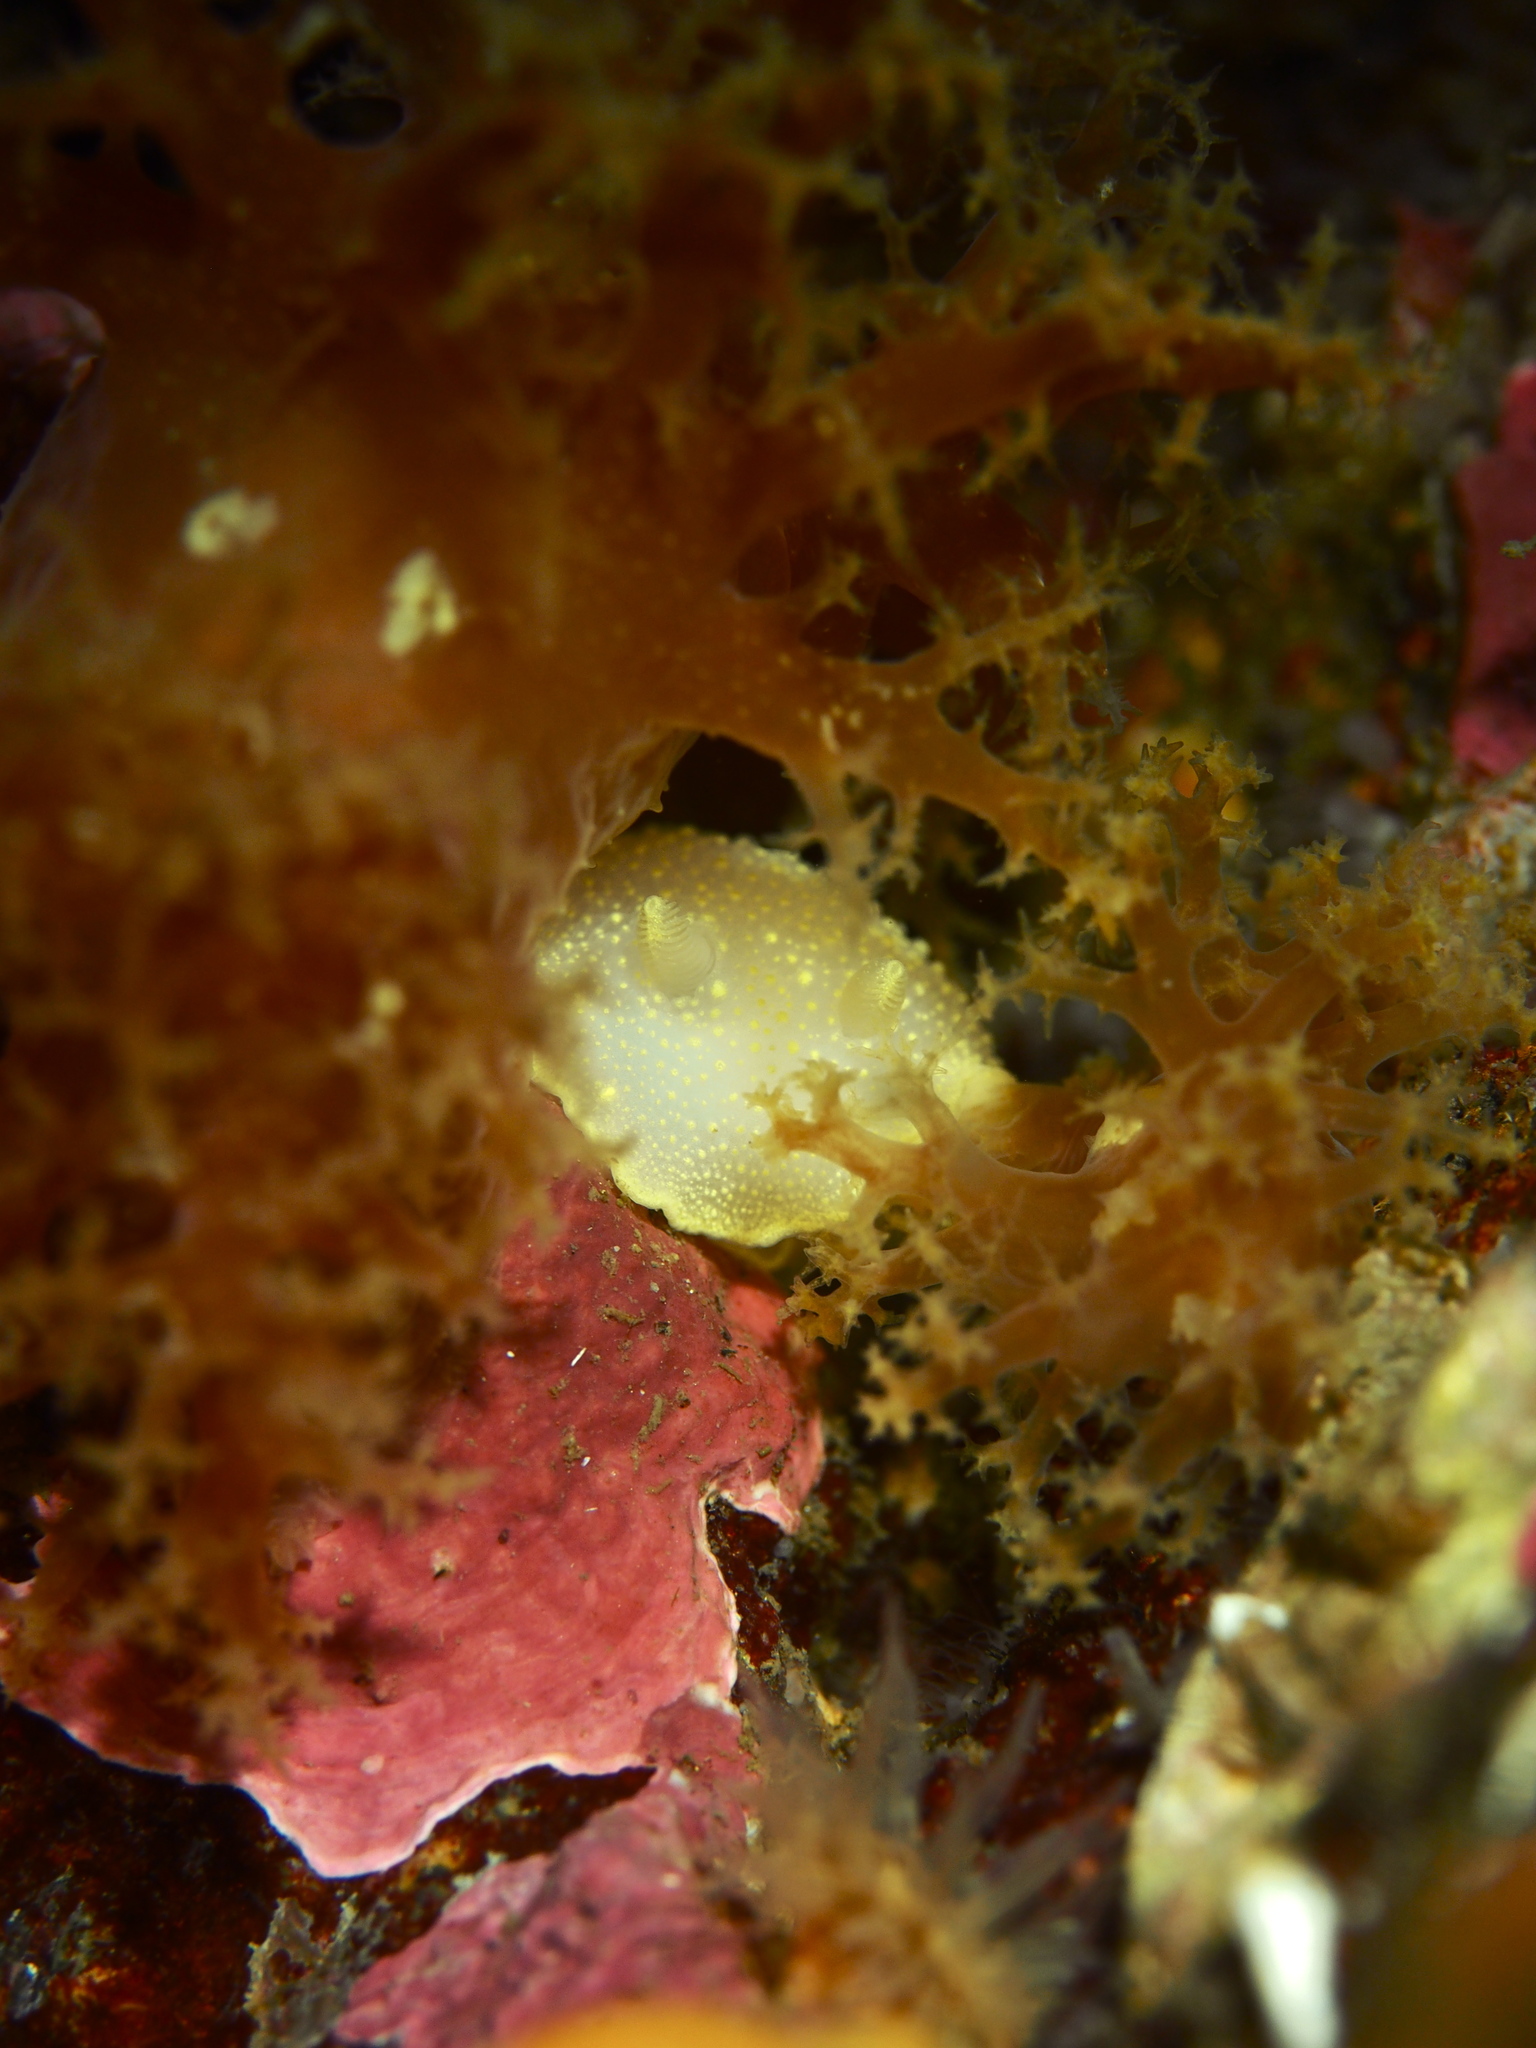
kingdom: Animalia
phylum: Mollusca
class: Gastropoda
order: Nudibranchia
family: Cadlinidae
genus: Cadlina
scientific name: Cadlina laevis
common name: White atlantic cadlina
